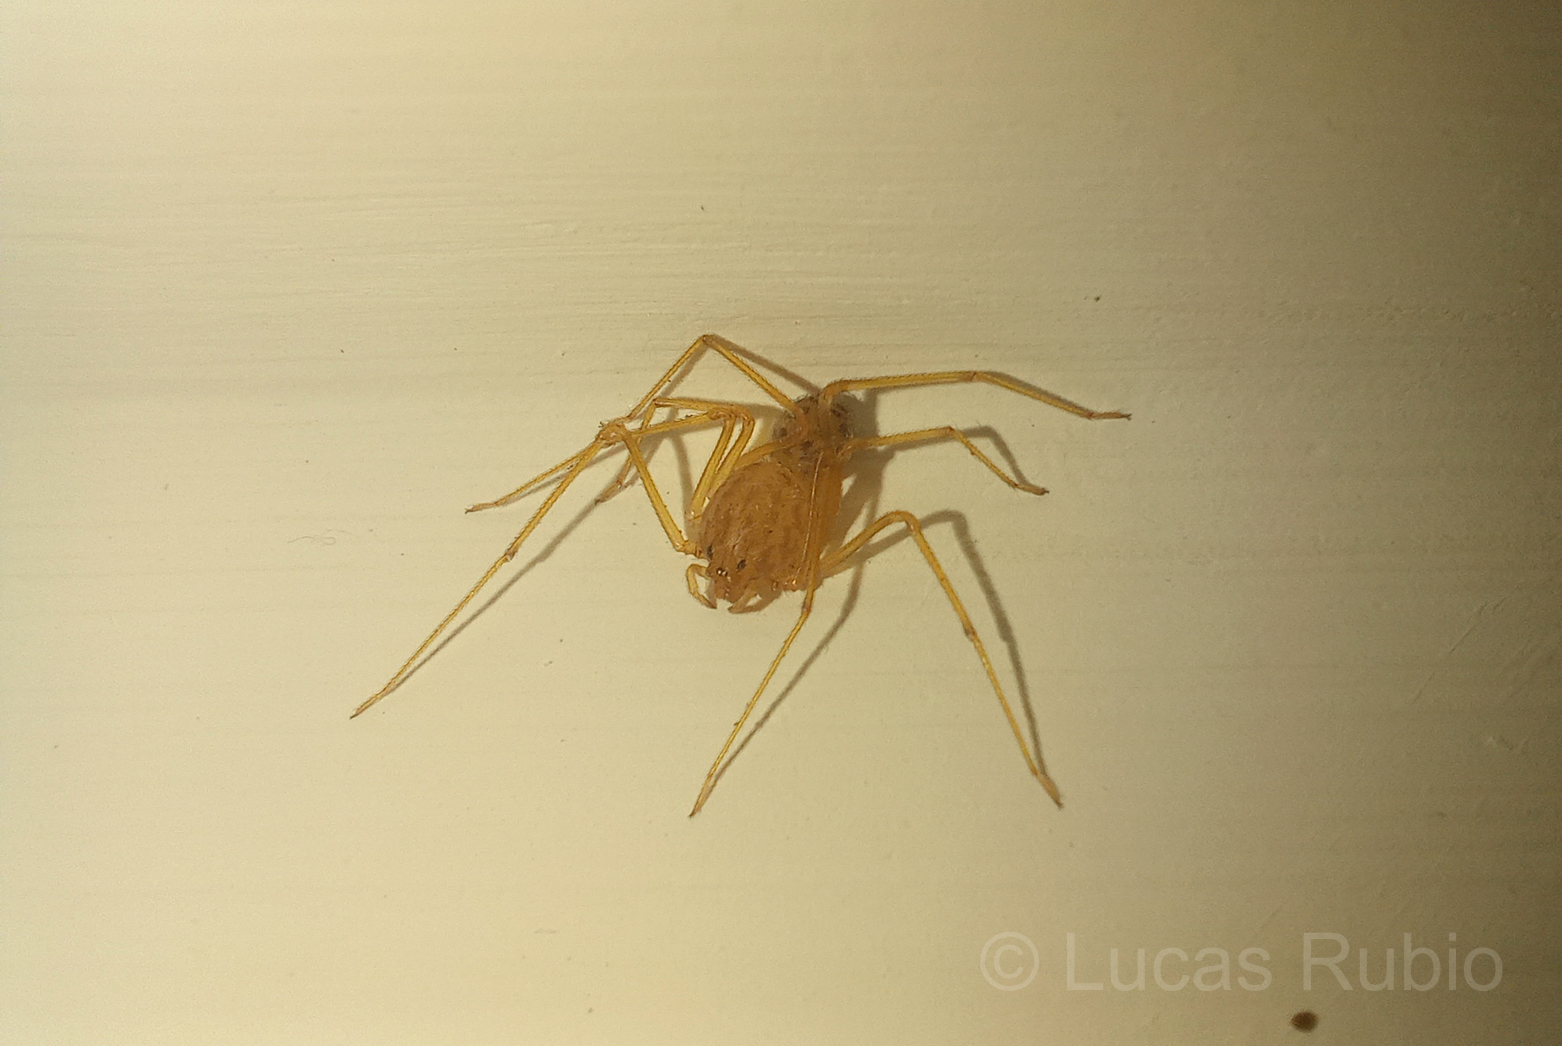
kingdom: Animalia
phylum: Arthropoda
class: Arachnida
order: Araneae
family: Scytodidae
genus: Scytodes
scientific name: Scytodes univittata
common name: Spitting spider
